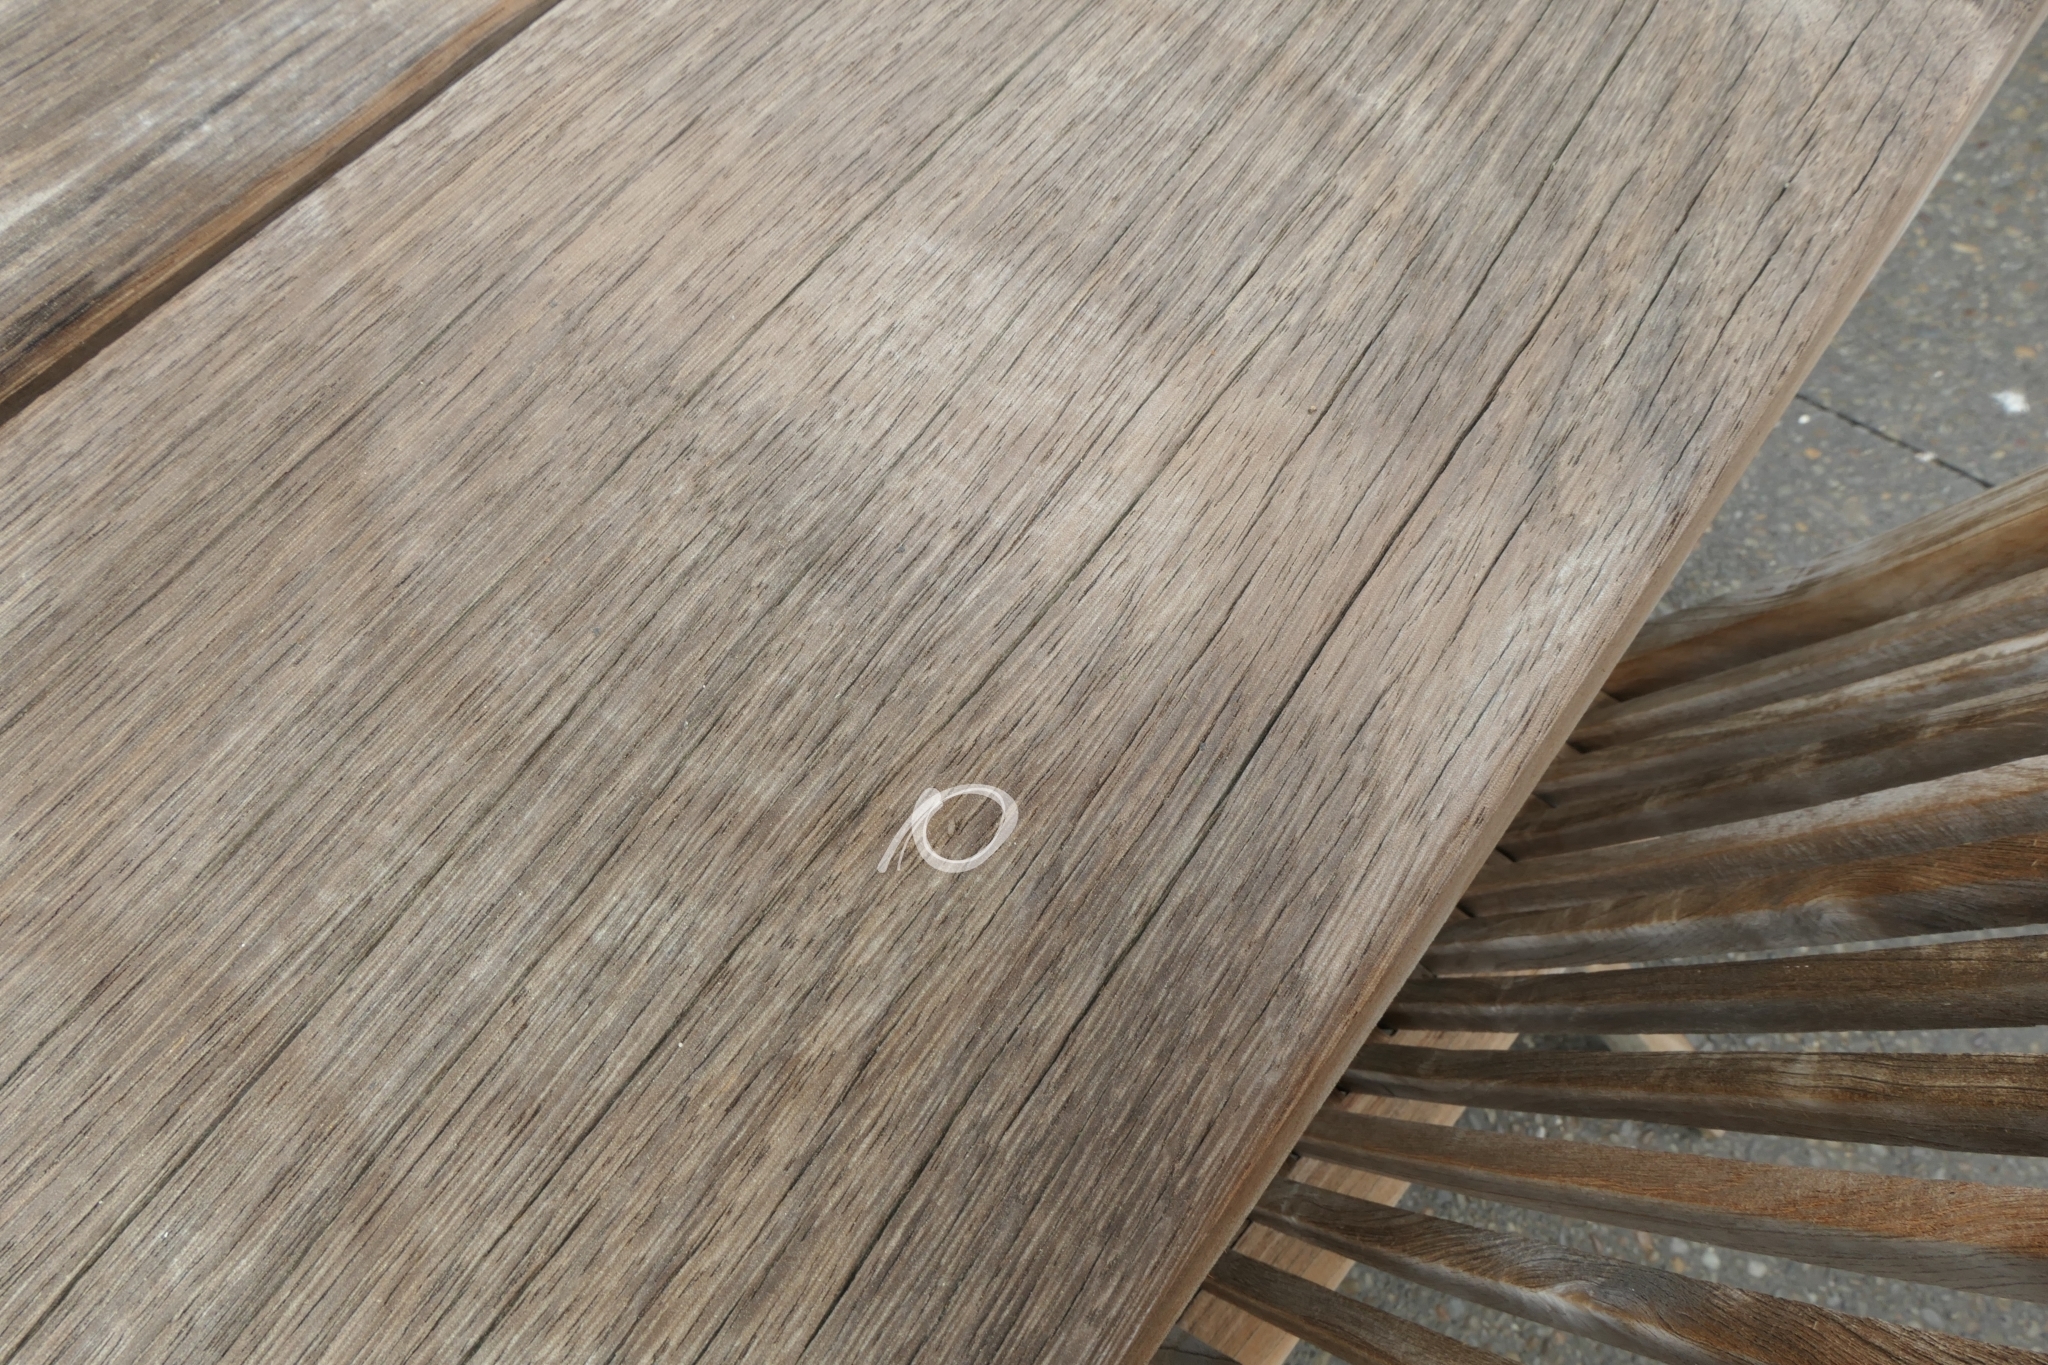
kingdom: Animalia
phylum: Arthropoda
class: Insecta
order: Coleoptera
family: Curculionidae
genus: Listronotus
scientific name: Listronotus bonariensis
